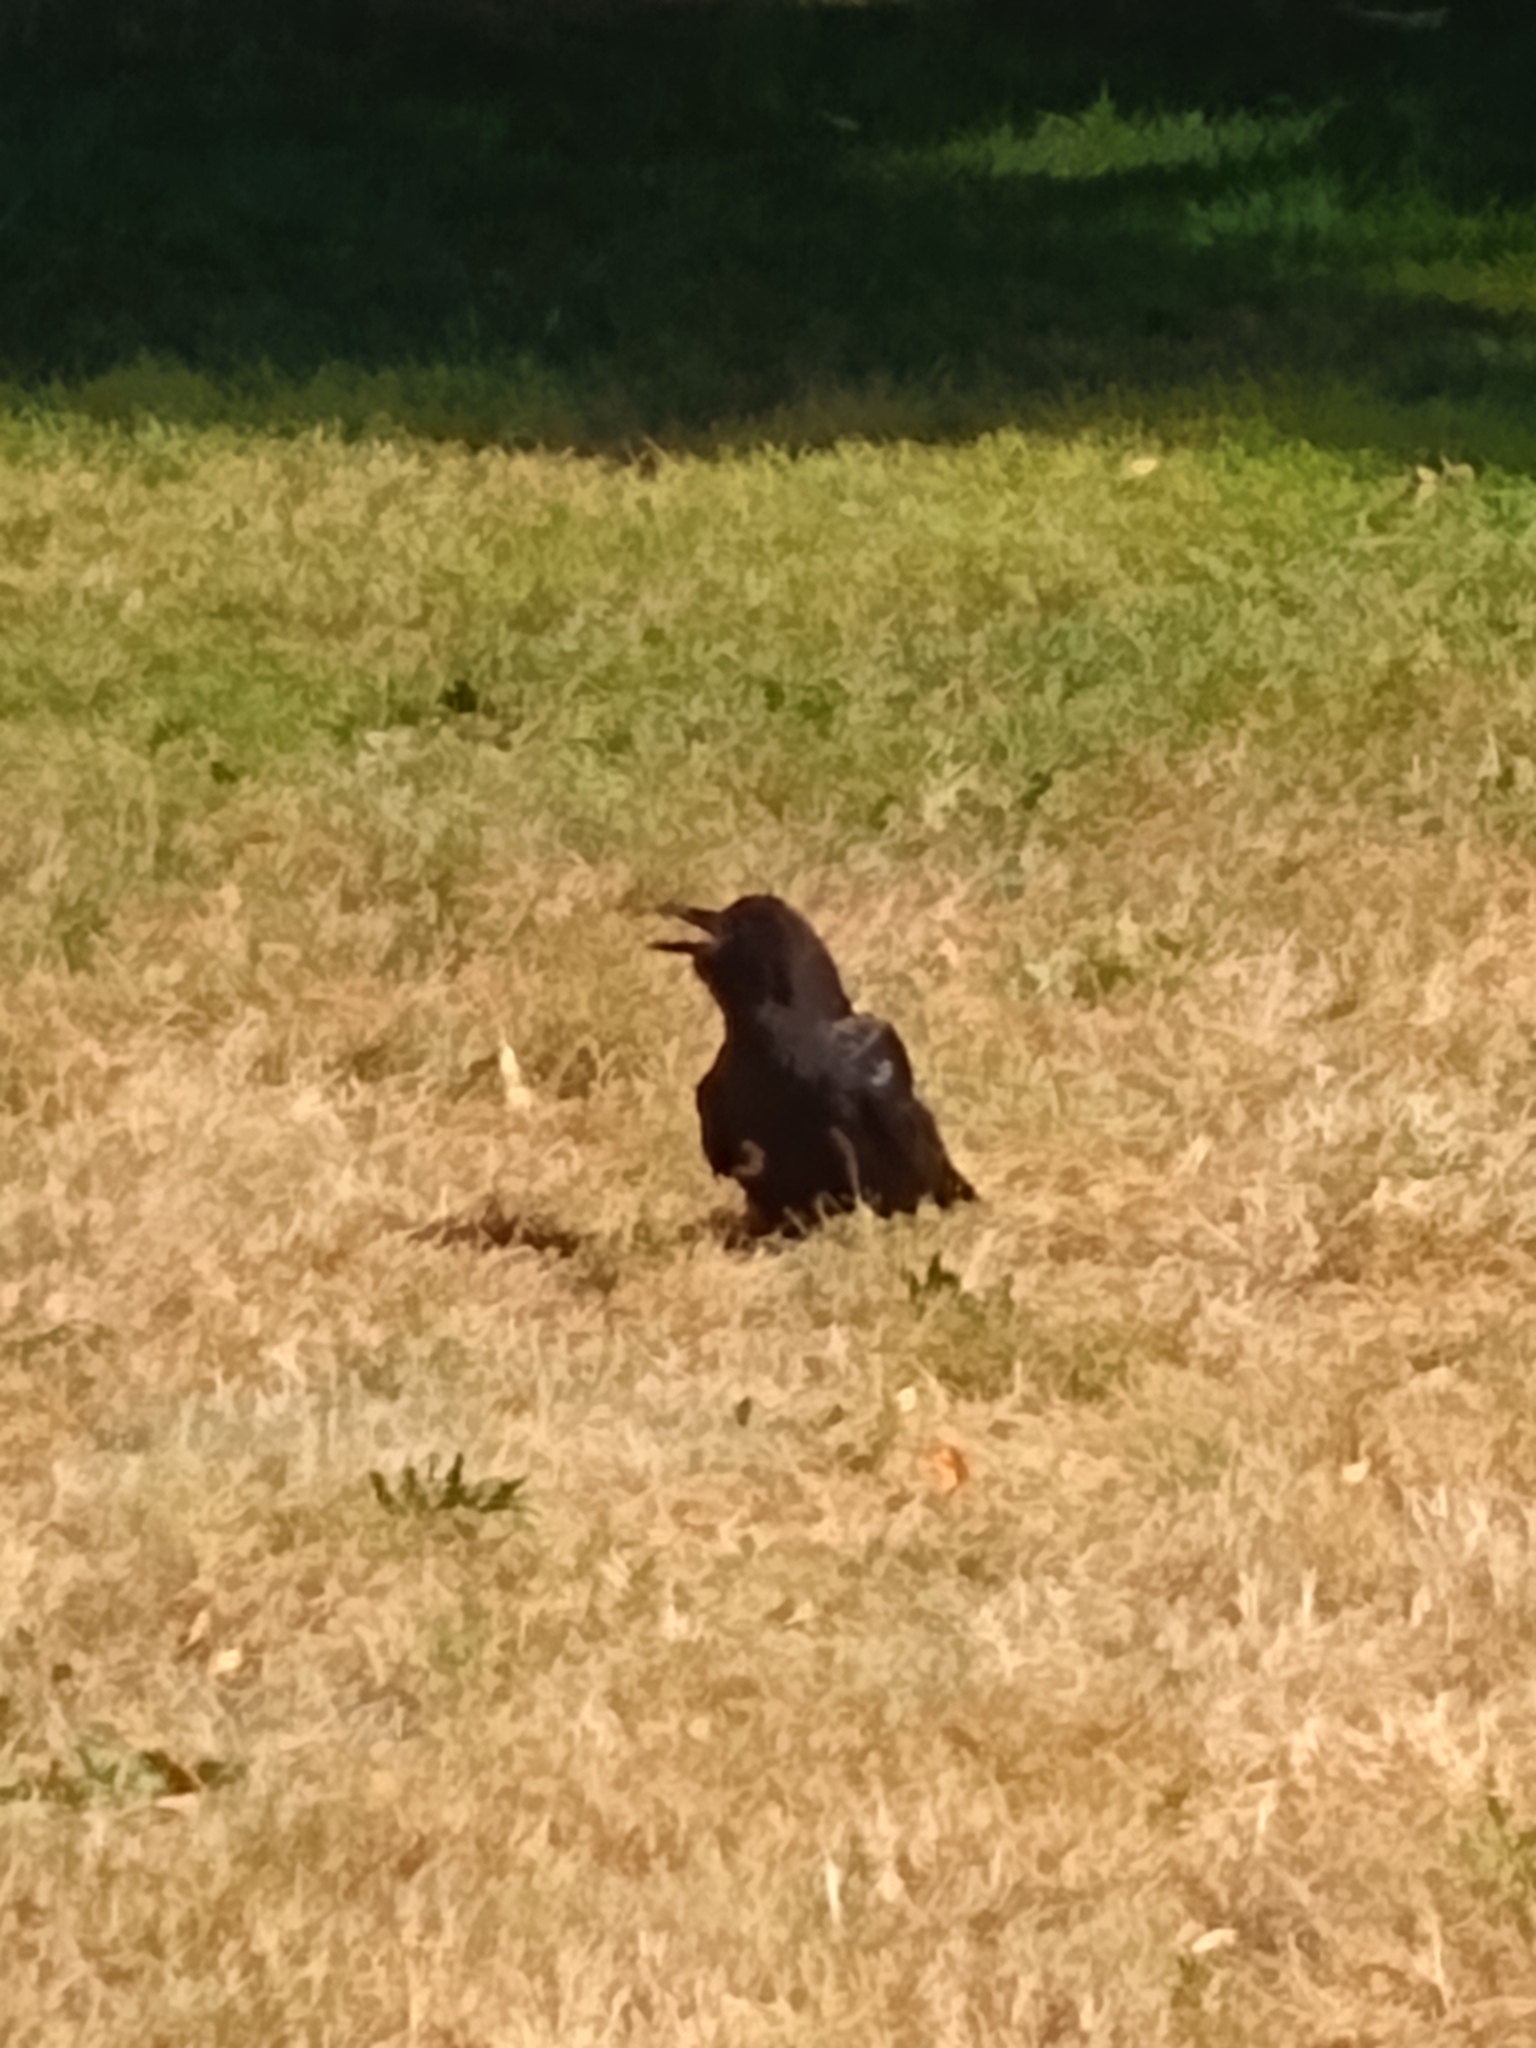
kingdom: Animalia
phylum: Chordata
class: Aves
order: Passeriformes
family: Corvidae
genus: Corvus
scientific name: Corvus brachyrhynchos
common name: American crow
